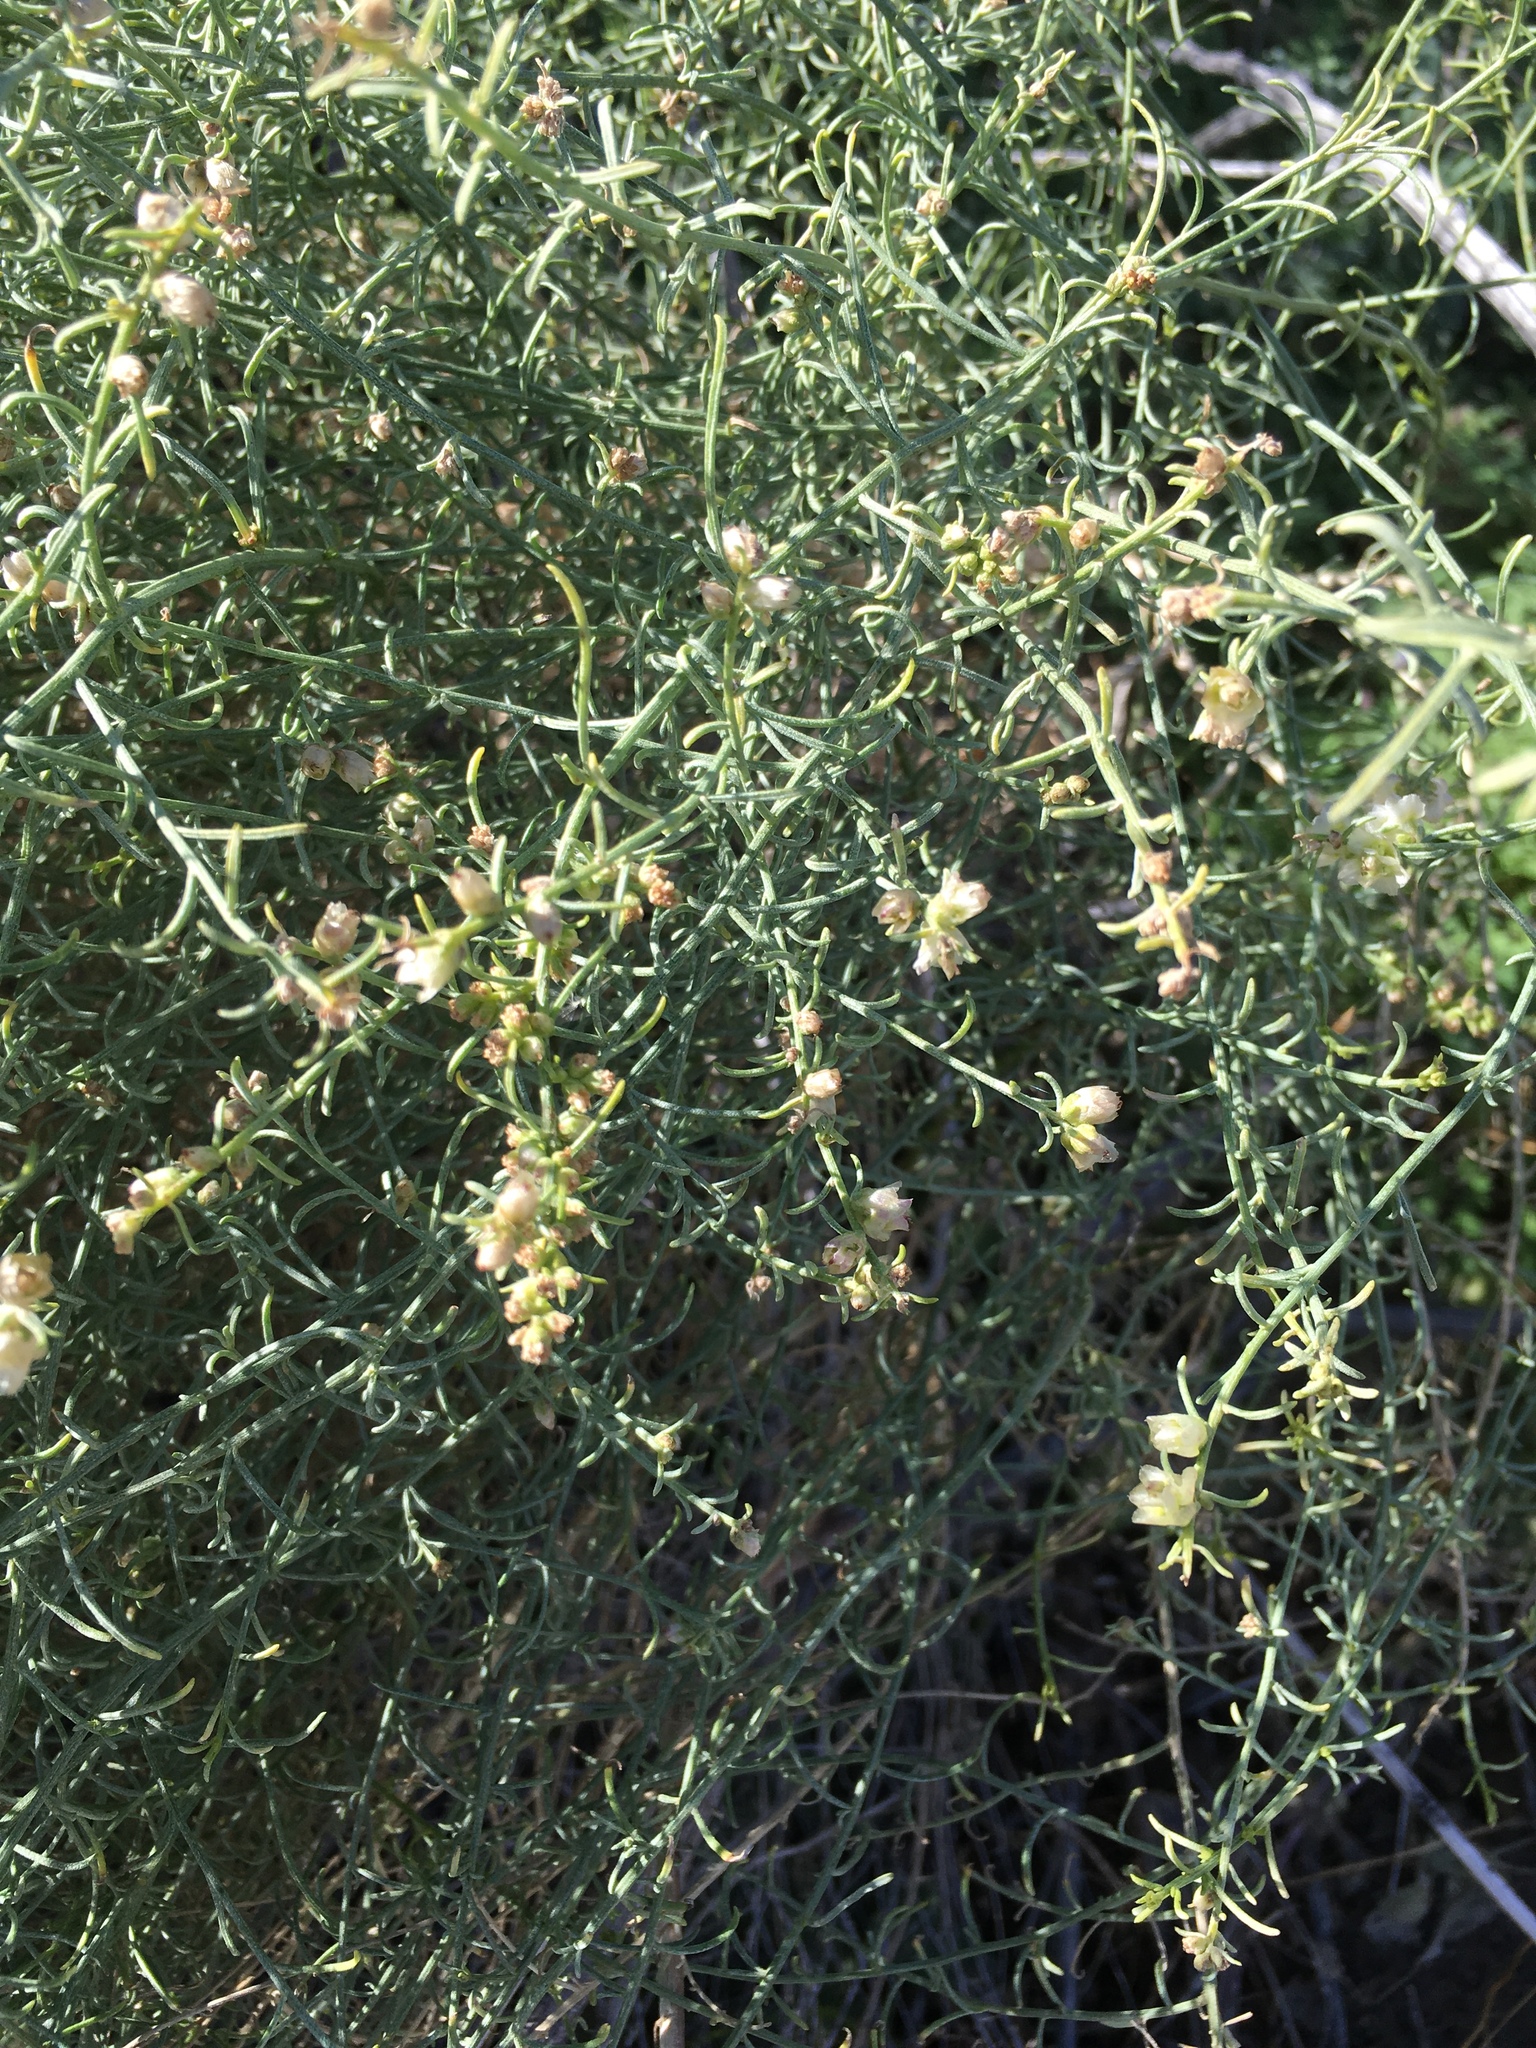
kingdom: Plantae
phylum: Tracheophyta
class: Magnoliopsida
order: Asterales
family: Asteraceae
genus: Ambrosia
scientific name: Ambrosia salsola
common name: Burrobrush
